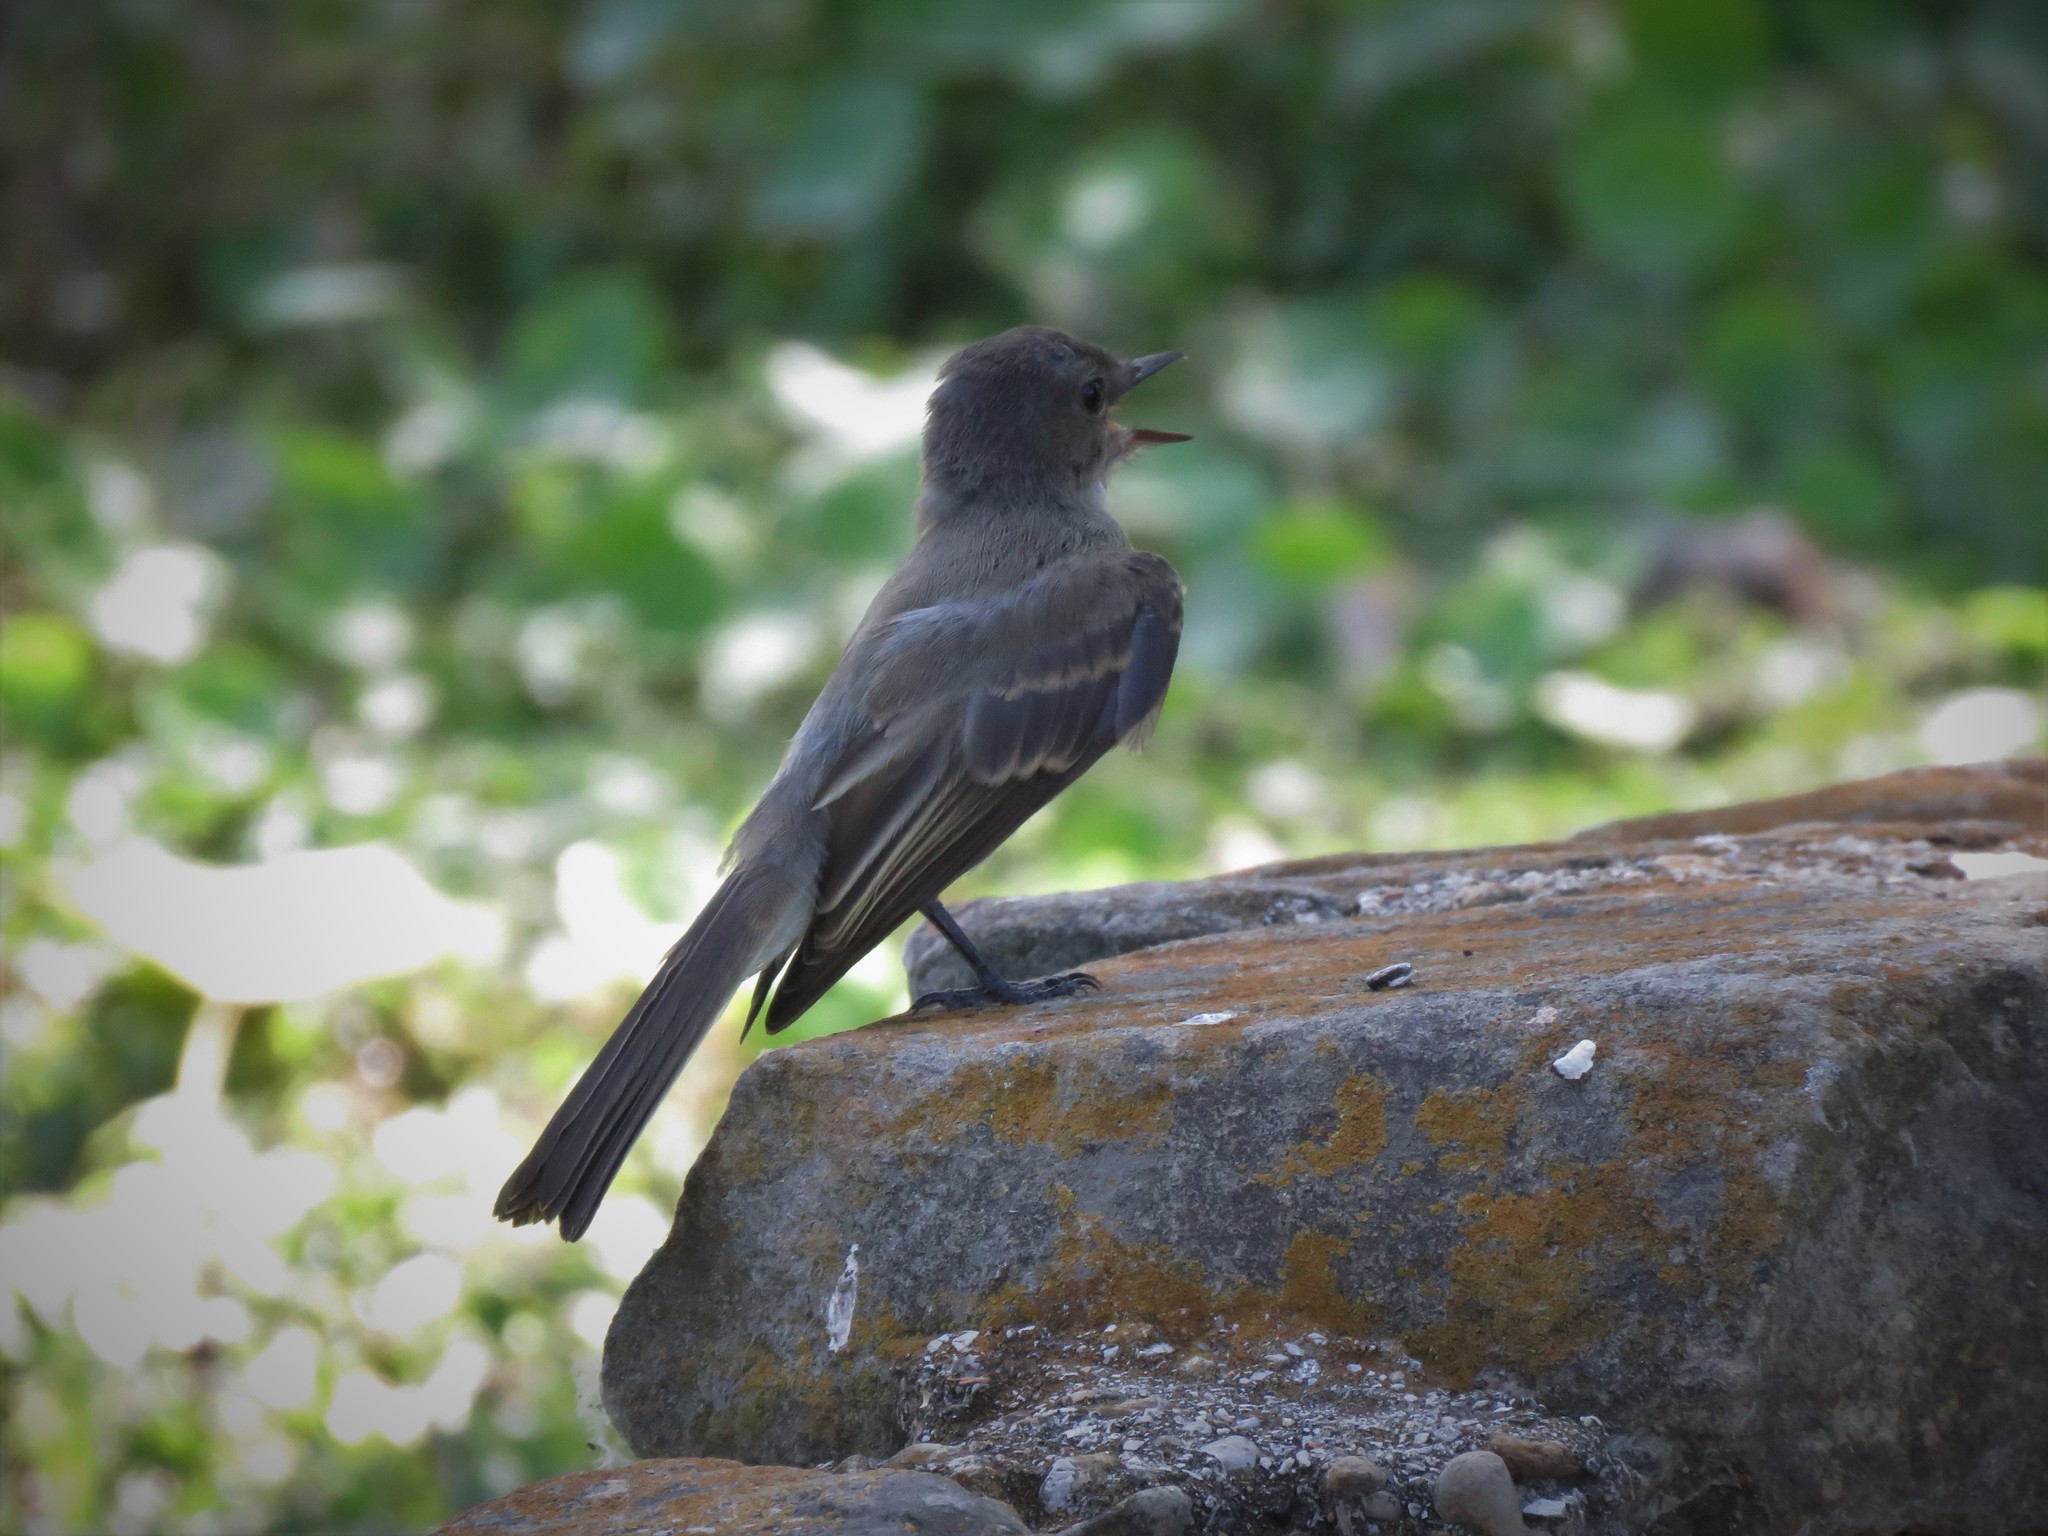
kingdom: Animalia
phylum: Chordata
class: Aves
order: Passeriformes
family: Turdidae
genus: Sialia
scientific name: Sialia sialis
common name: Eastern bluebird
